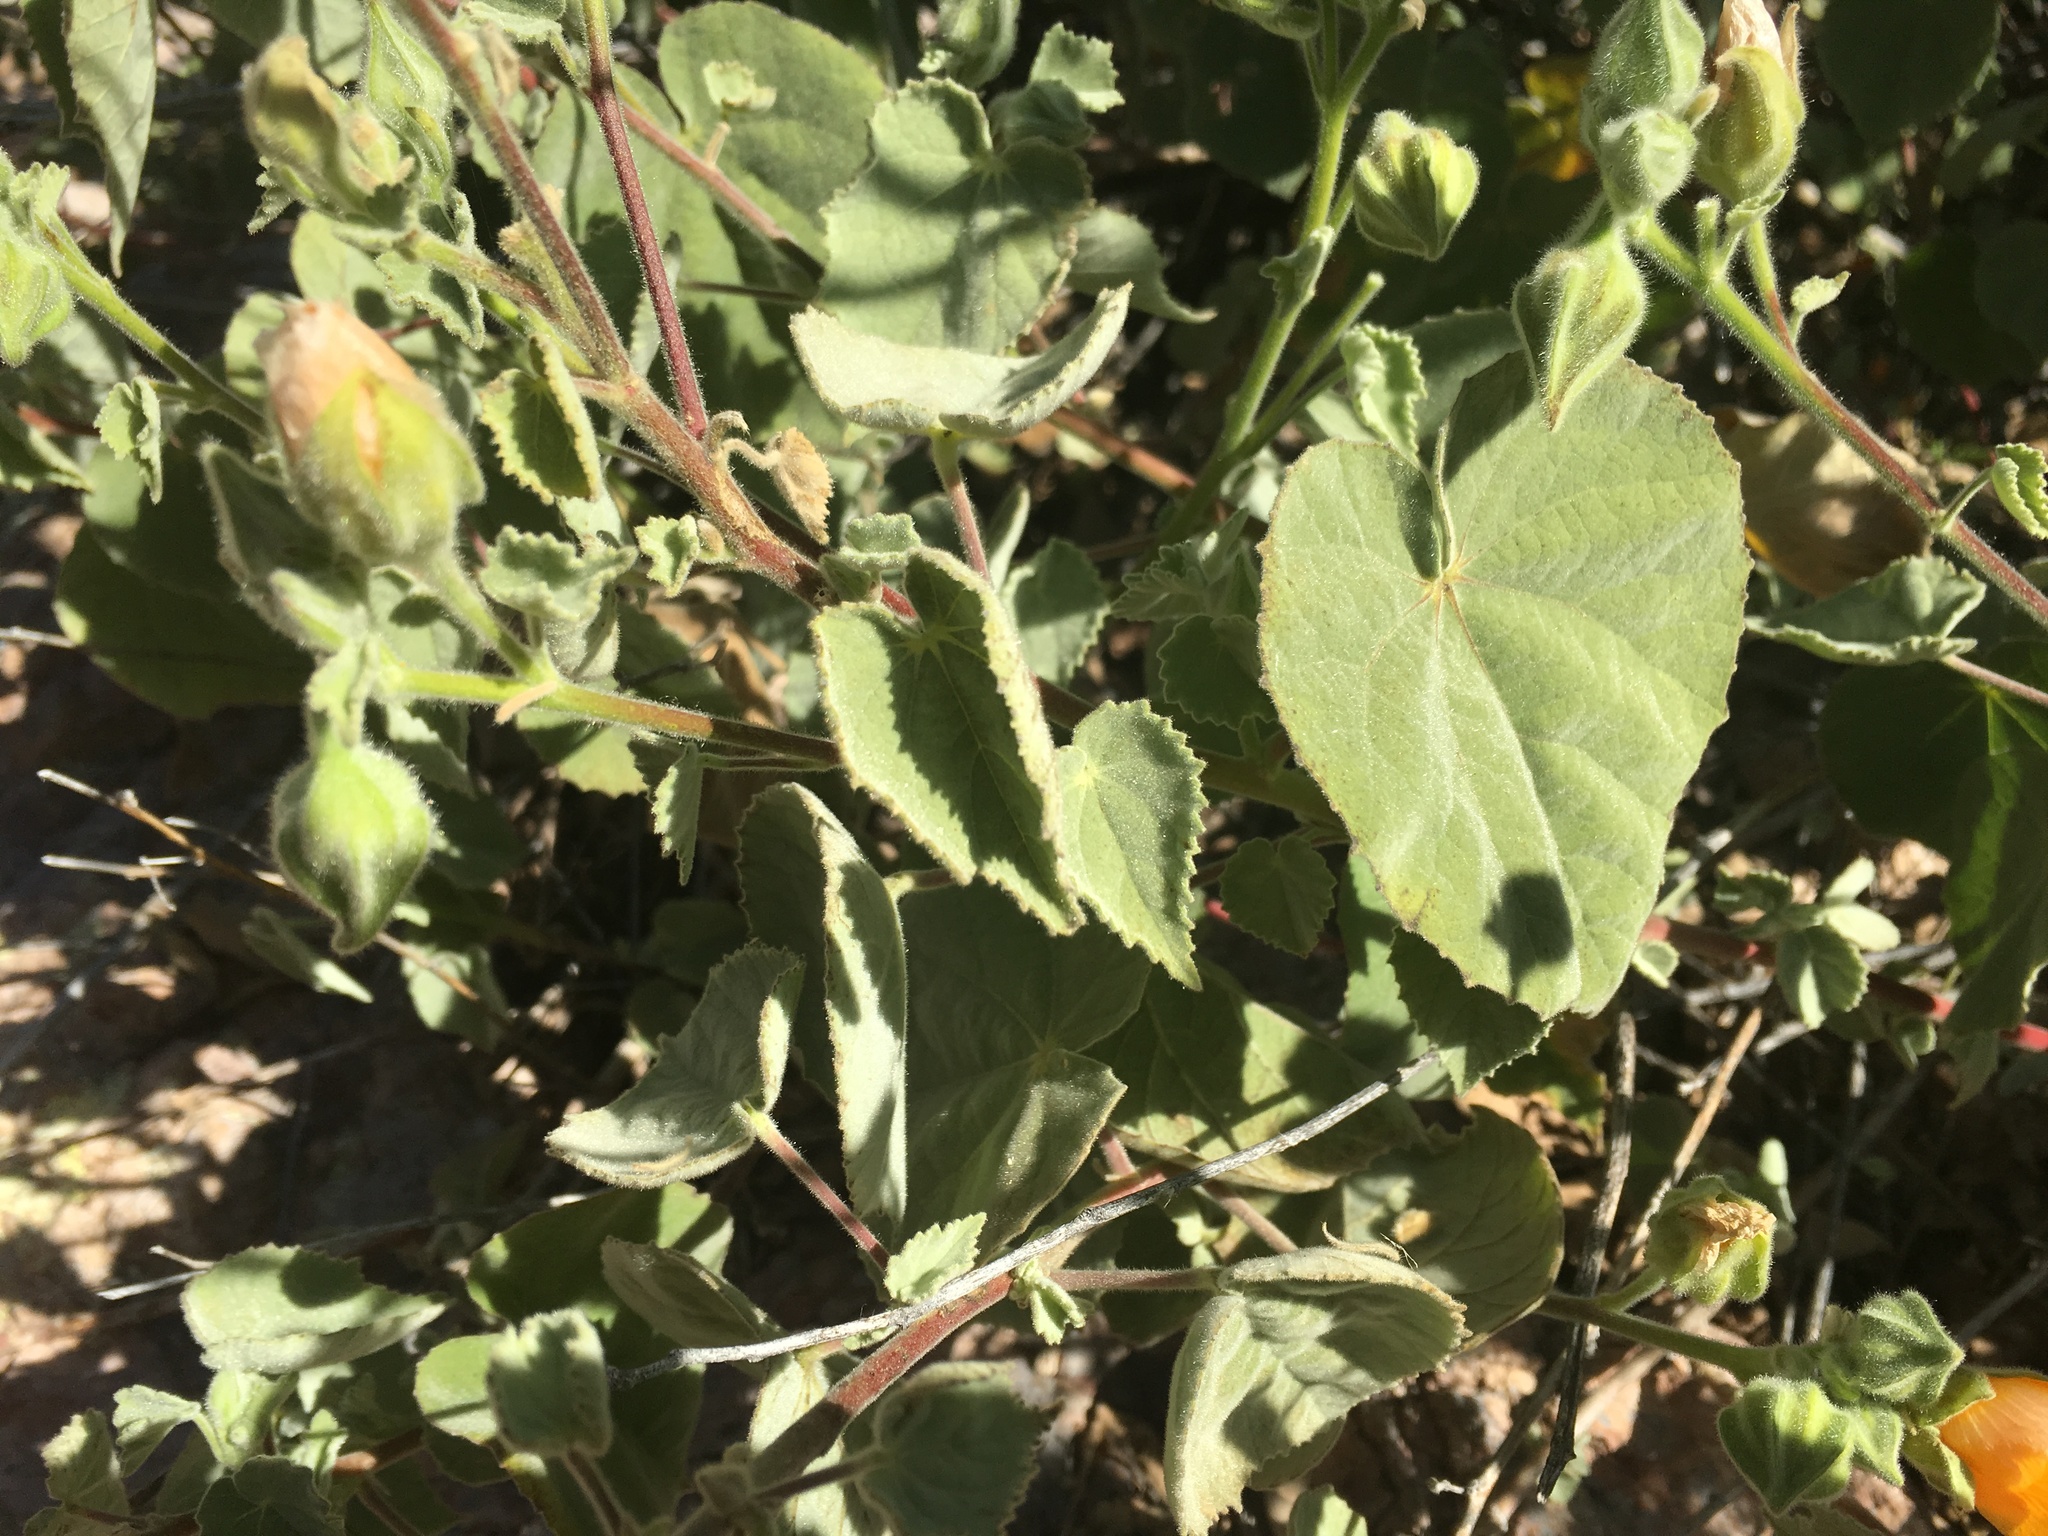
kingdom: Plantae
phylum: Tracheophyta
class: Magnoliopsida
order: Malvales
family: Malvaceae
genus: Abutilon
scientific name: Abutilon palmeri
